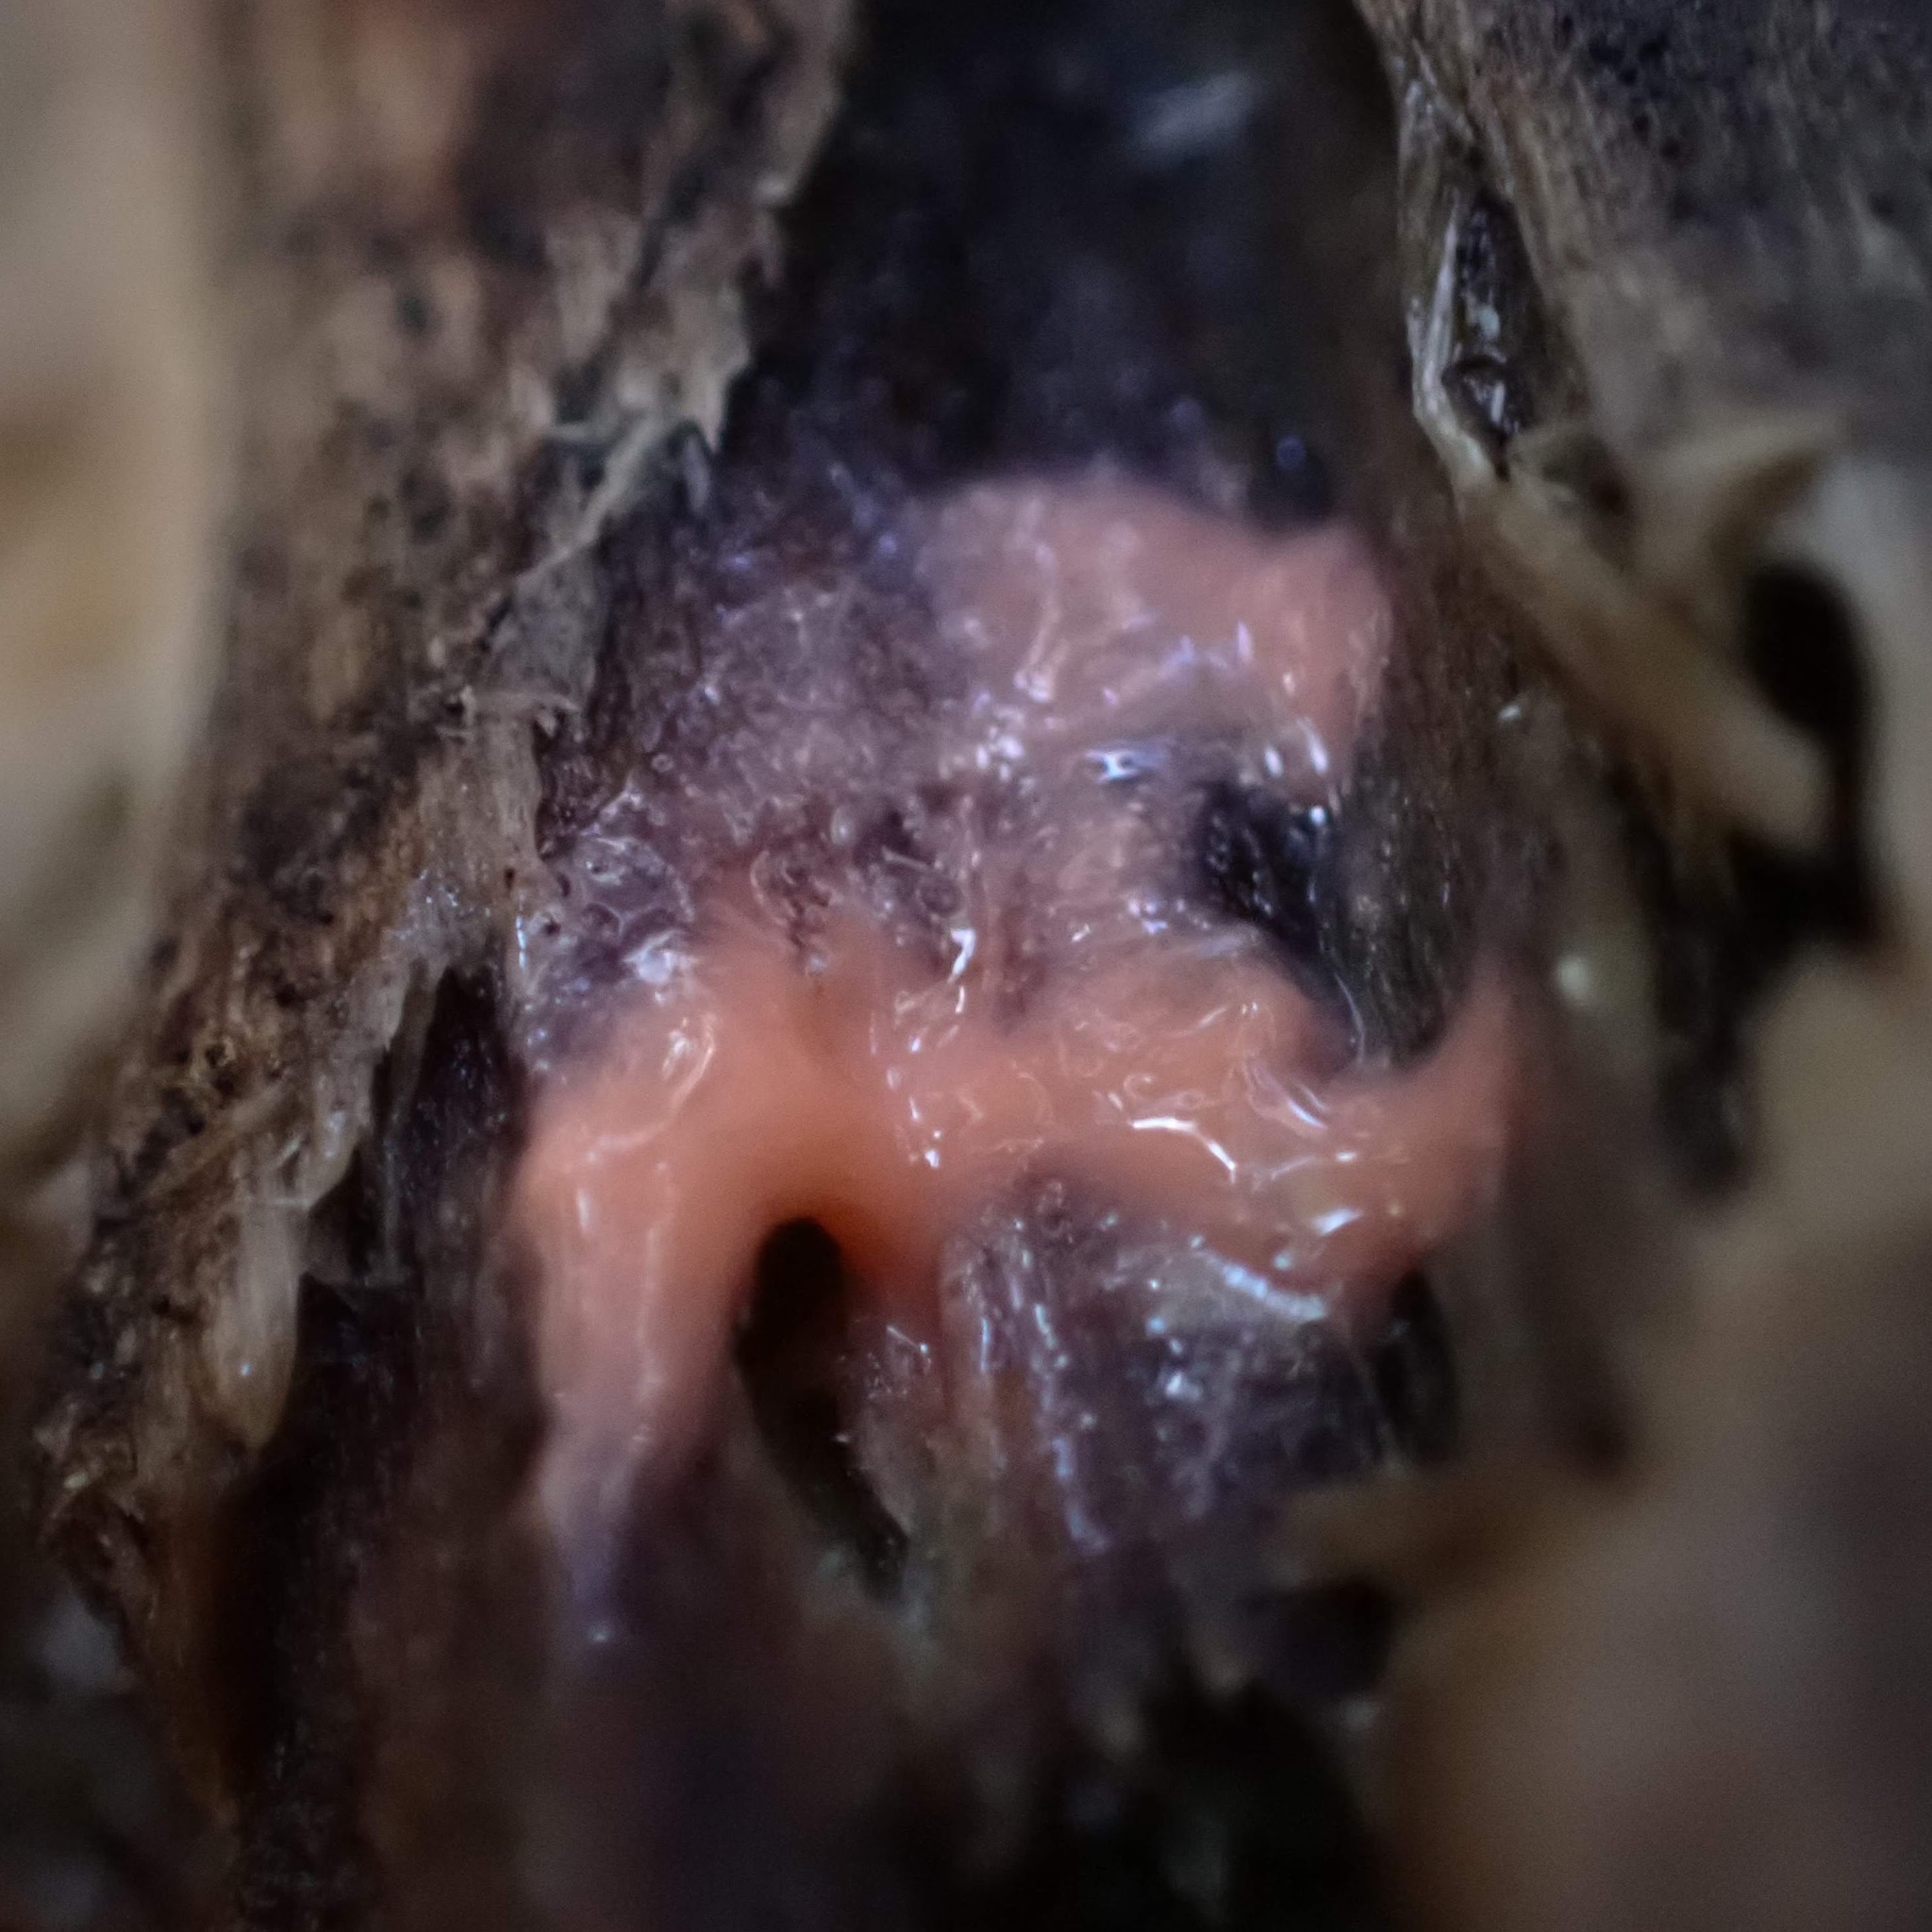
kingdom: Protozoa
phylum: Mycetozoa
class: Myxomycetes
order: Cribrariales
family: Tubiferaceae
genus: Lycogala
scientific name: Lycogala
